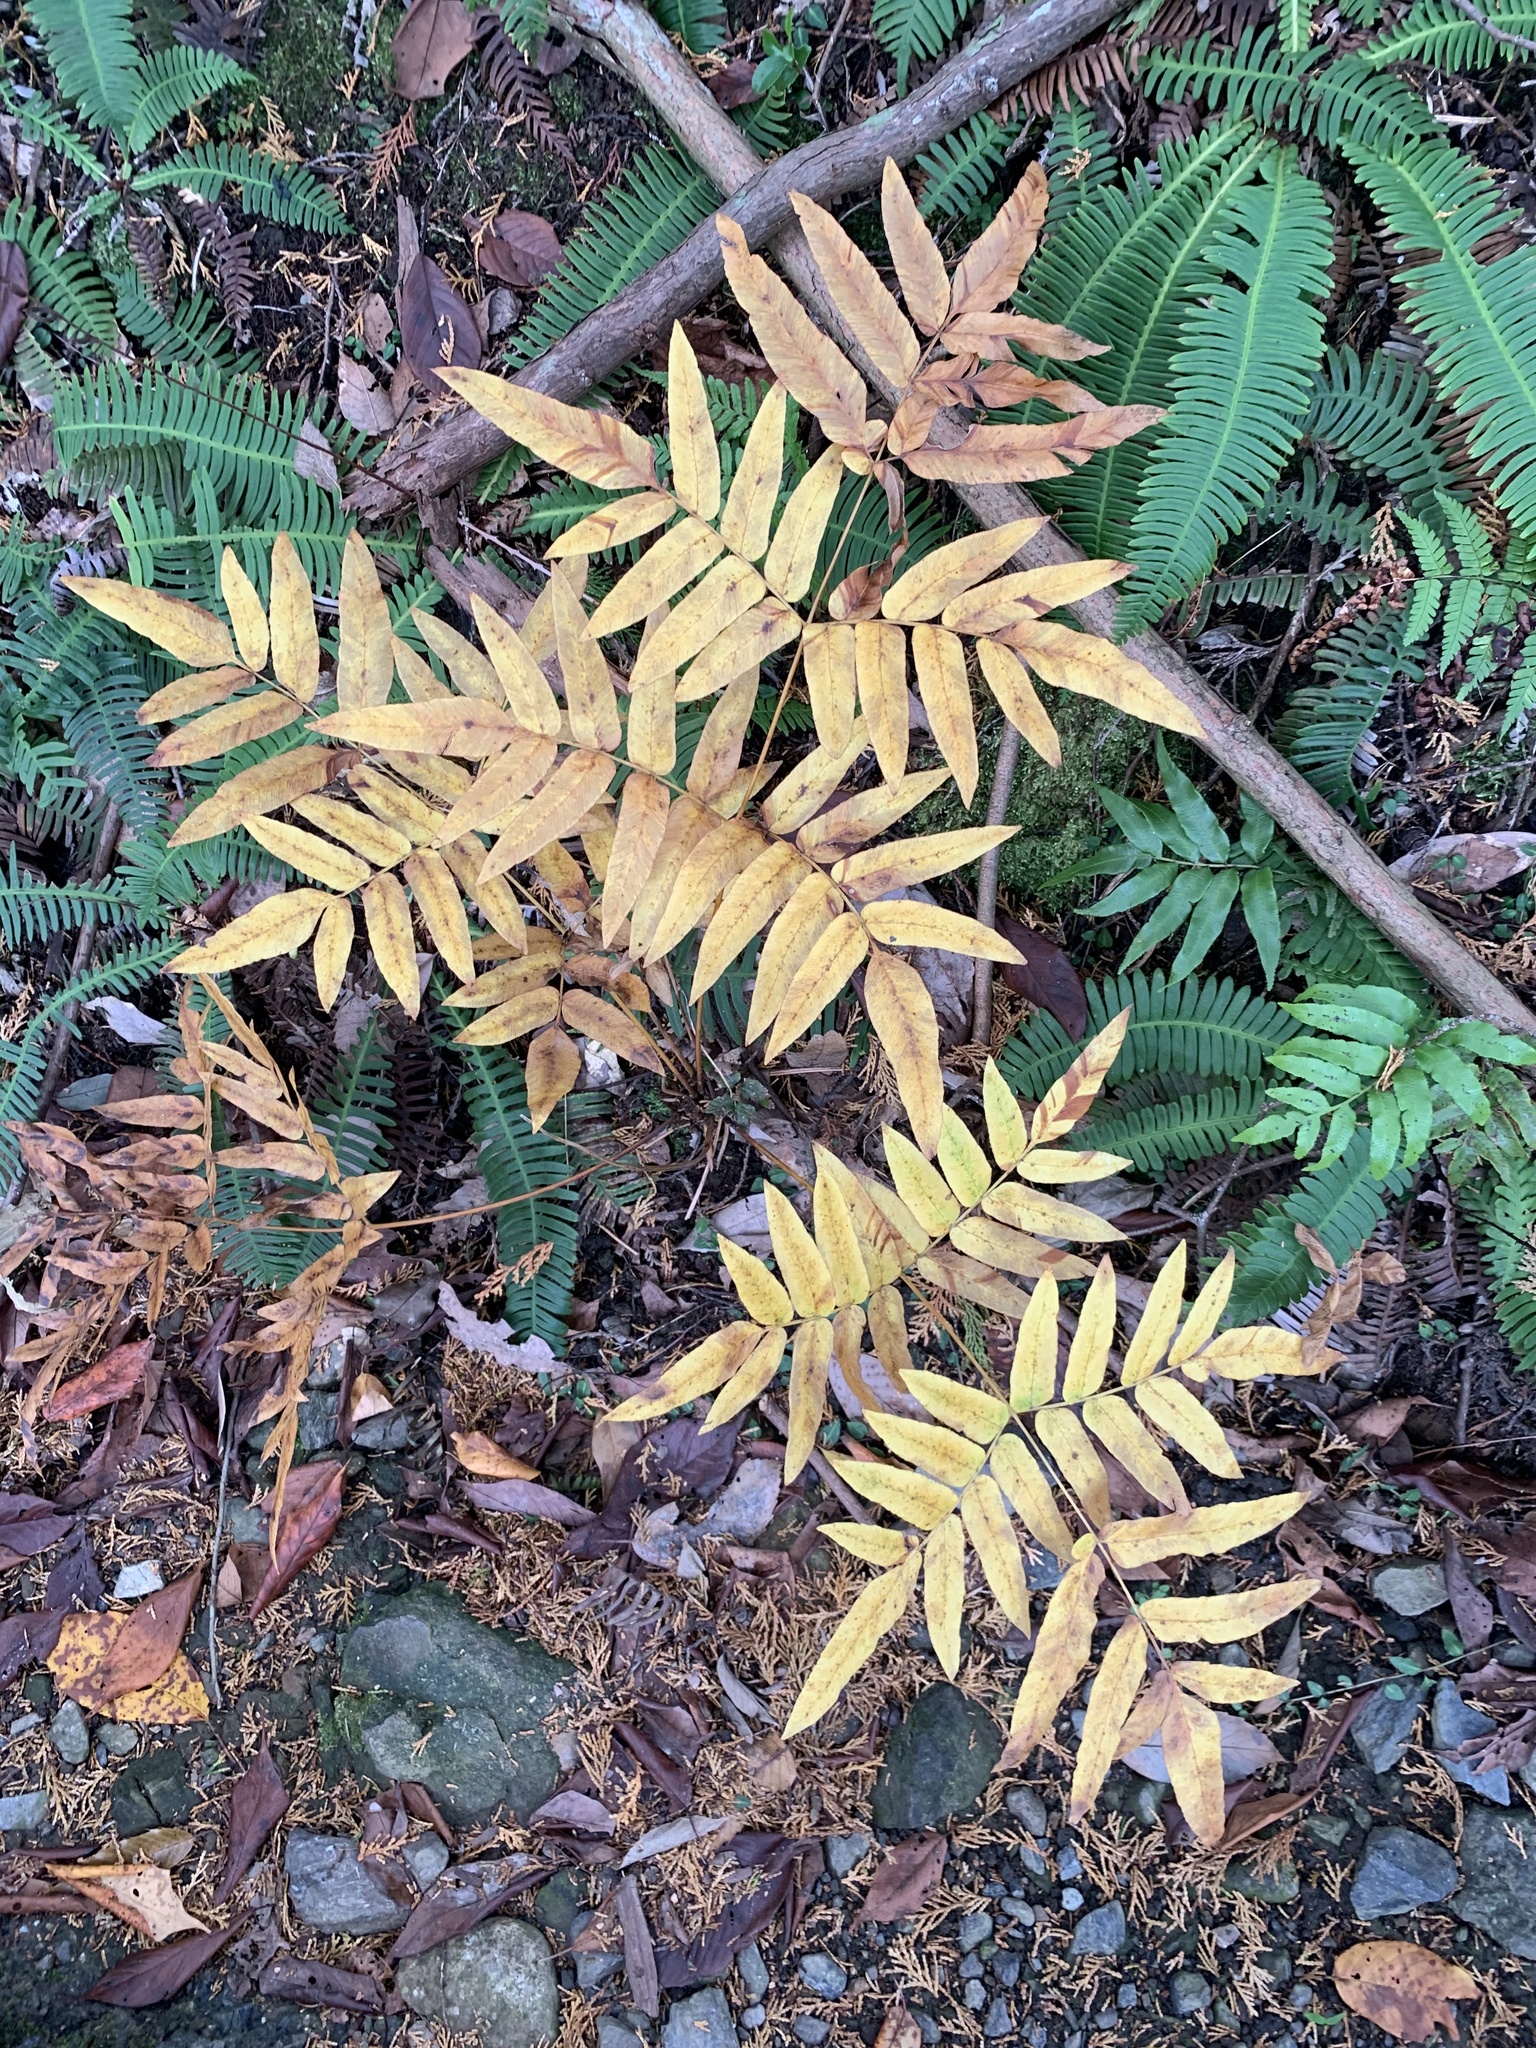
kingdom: Plantae
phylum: Tracheophyta
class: Polypodiopsida
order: Osmundales
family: Osmundaceae
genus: Osmunda
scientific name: Osmunda japonica
